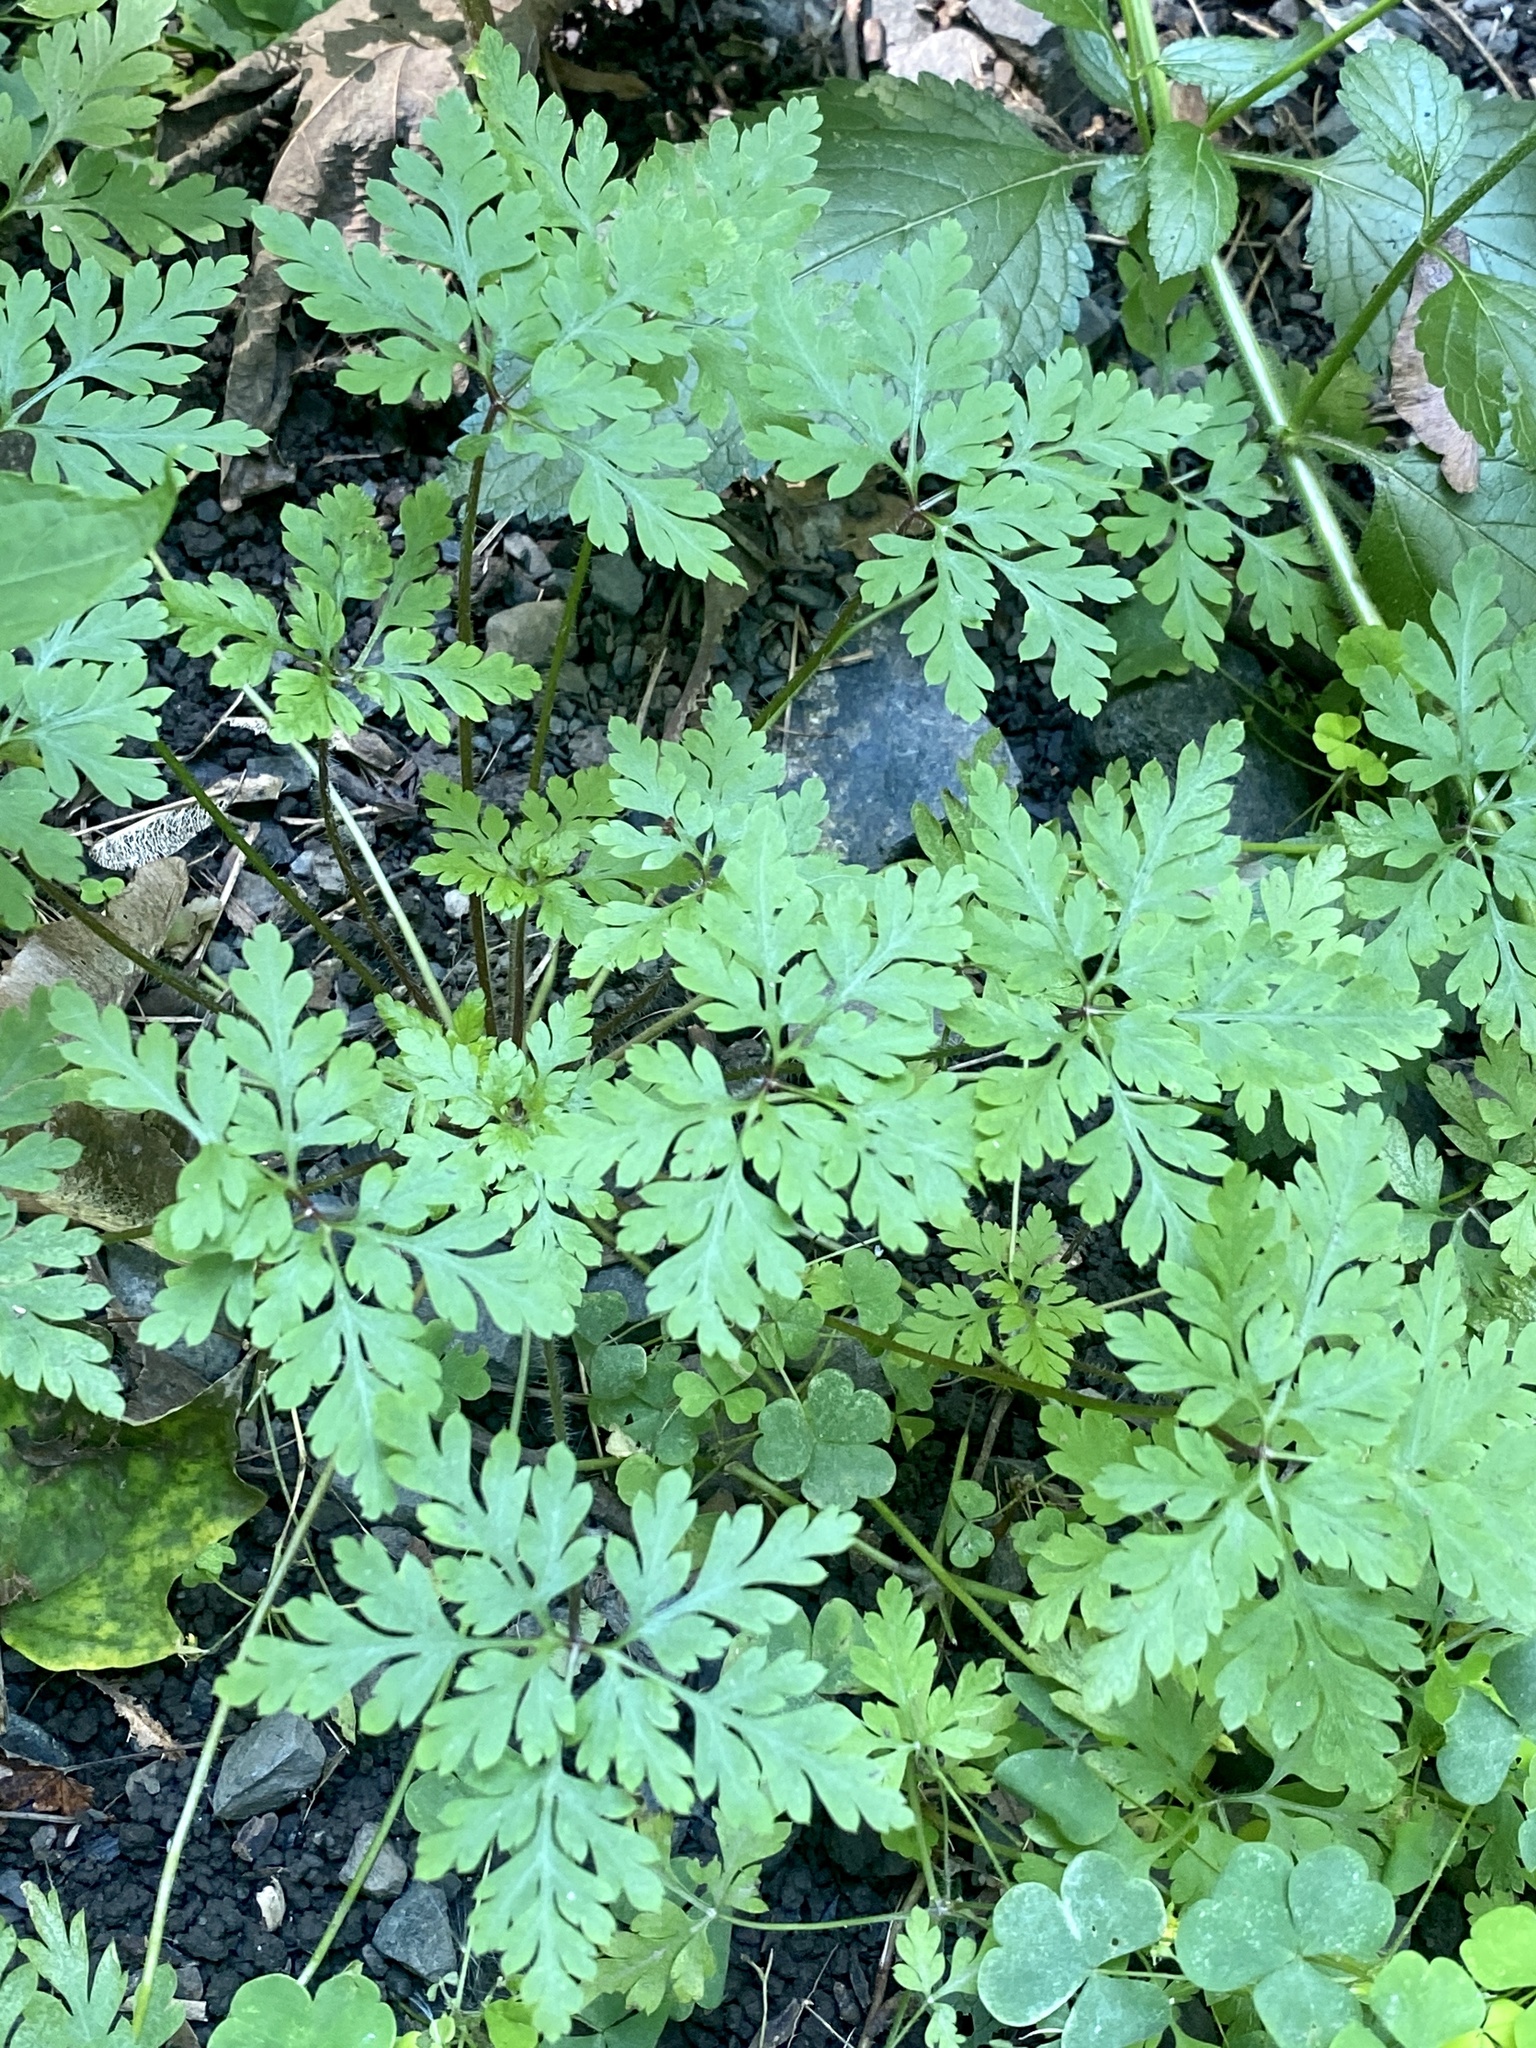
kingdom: Plantae
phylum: Tracheophyta
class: Magnoliopsida
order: Geraniales
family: Geraniaceae
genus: Geranium
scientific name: Geranium robertianum
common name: Herb-robert
